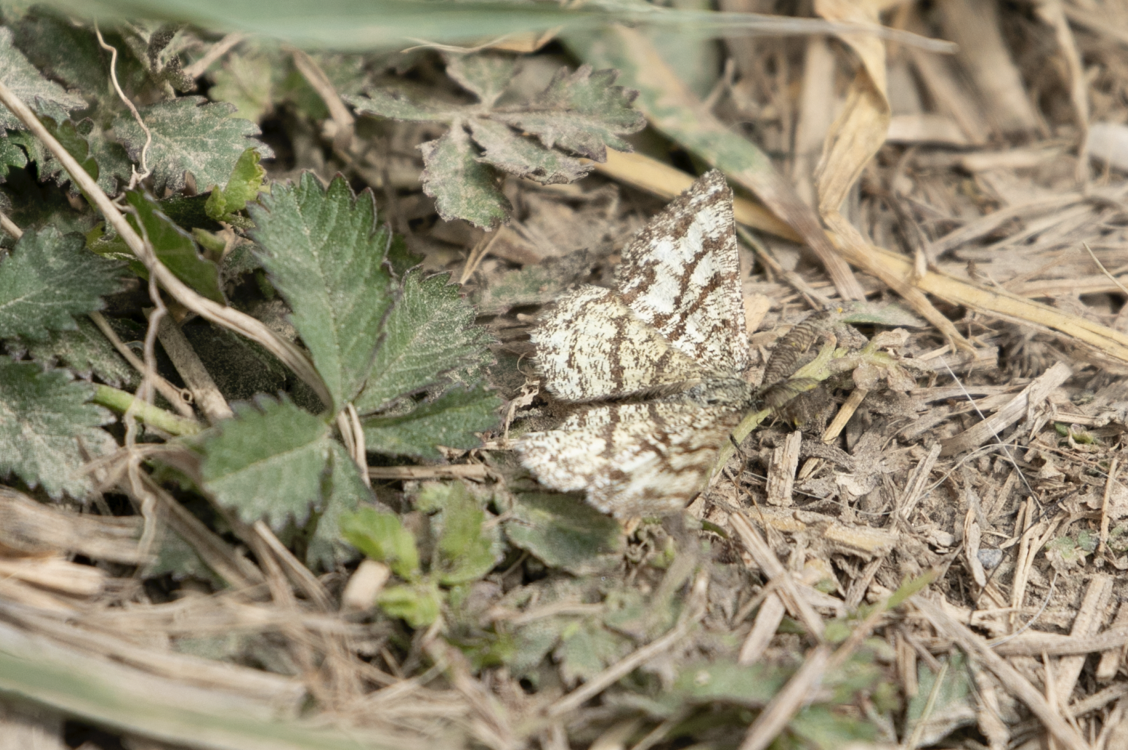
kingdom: Animalia
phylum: Arthropoda
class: Insecta
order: Lepidoptera
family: Geometridae
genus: Ematurga
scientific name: Ematurga atomaria
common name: Common heath
